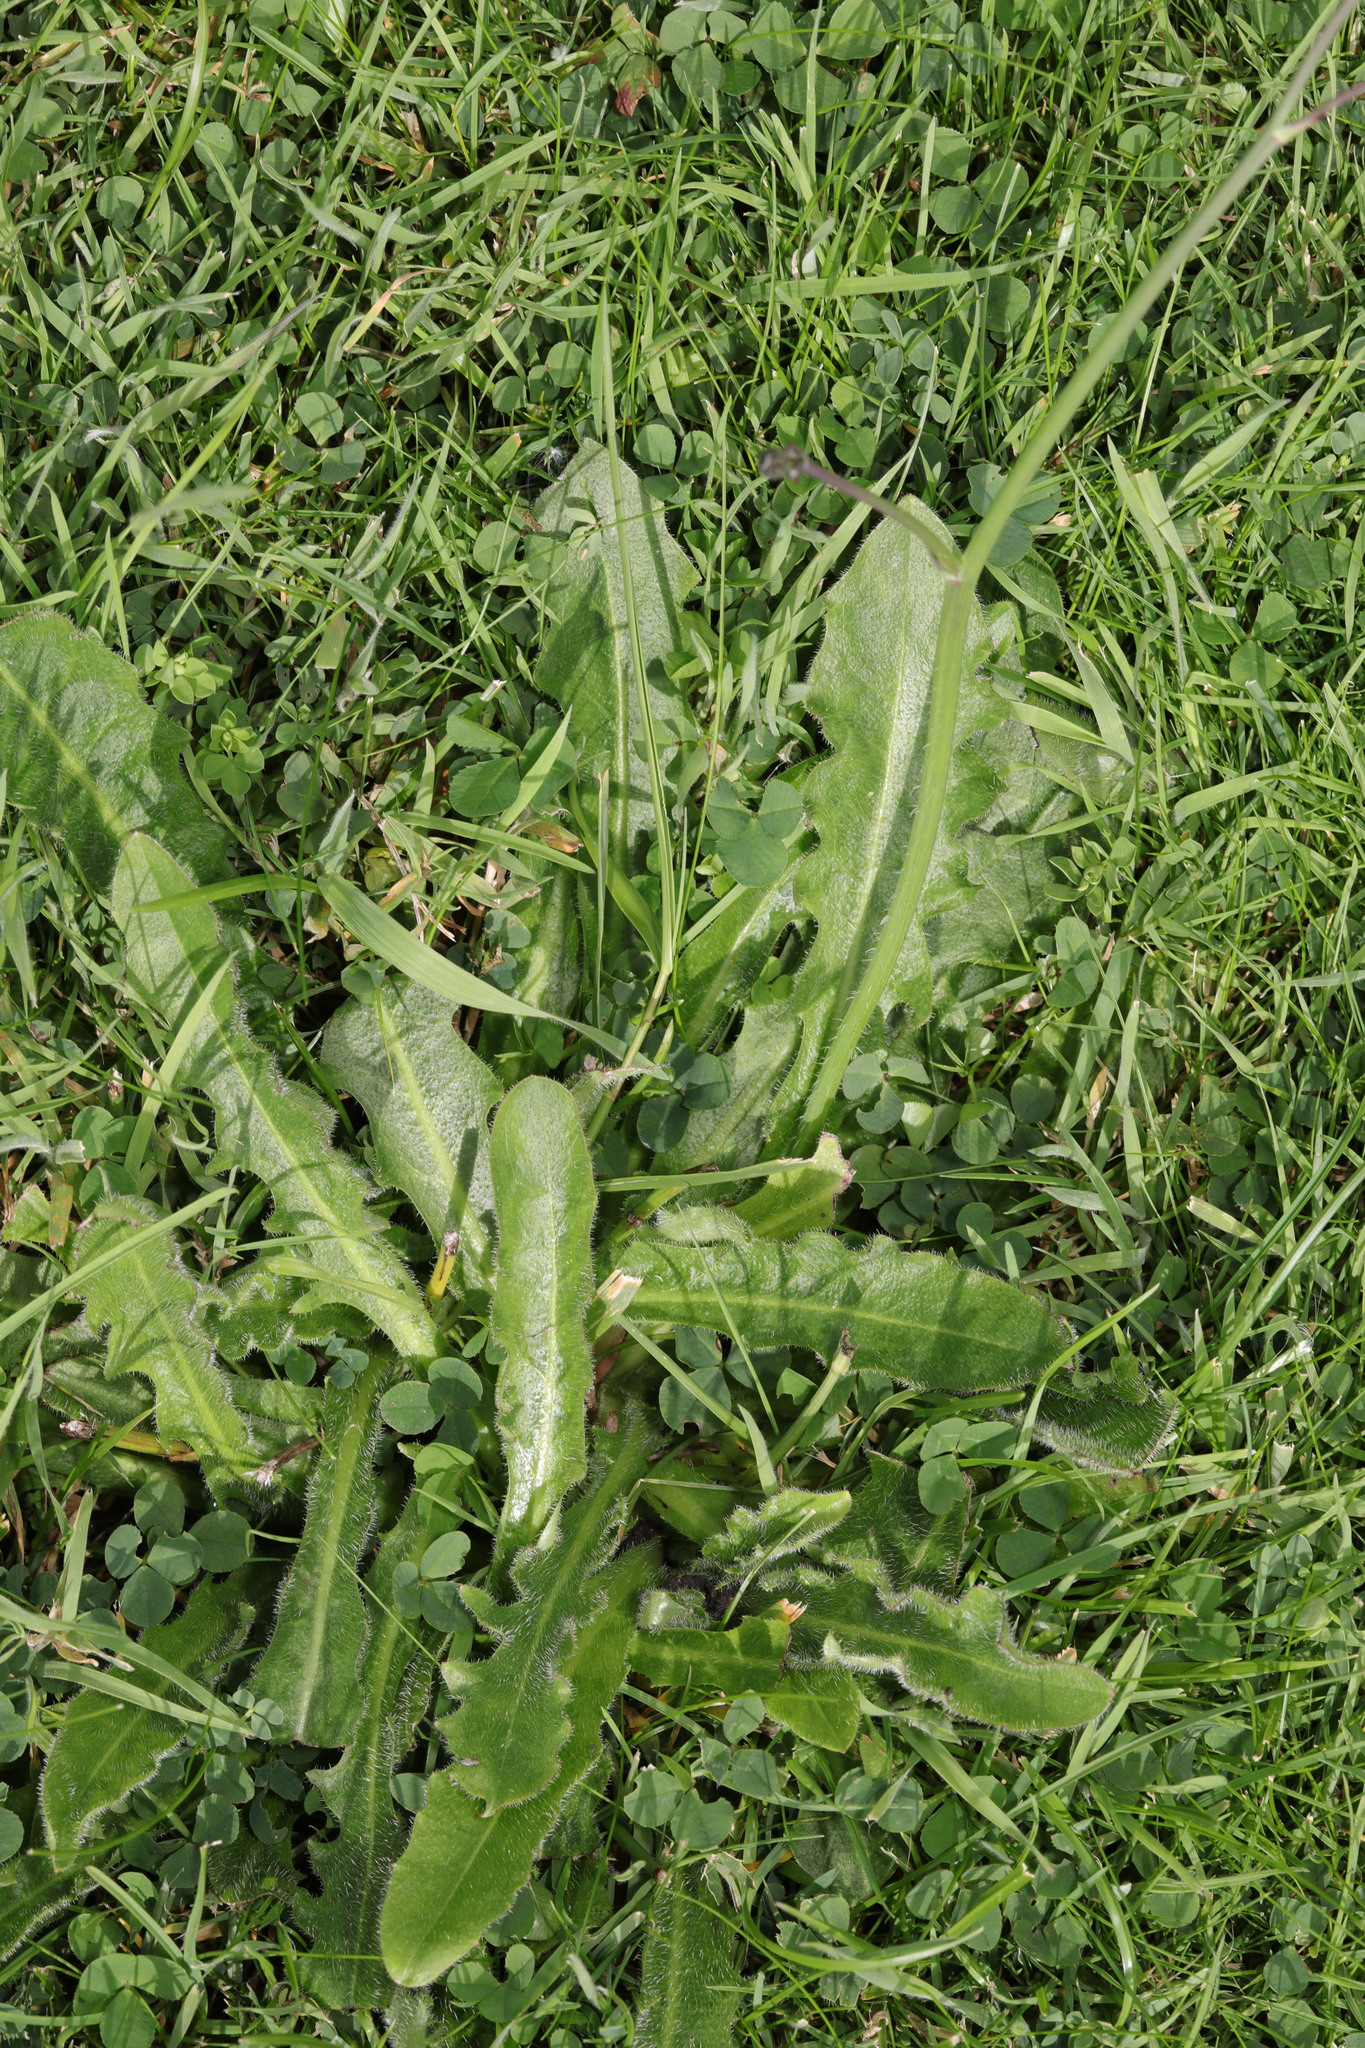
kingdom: Plantae
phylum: Tracheophyta
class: Magnoliopsida
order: Asterales
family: Asteraceae
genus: Hypochaeris
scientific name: Hypochaeris radicata
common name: Flatweed
